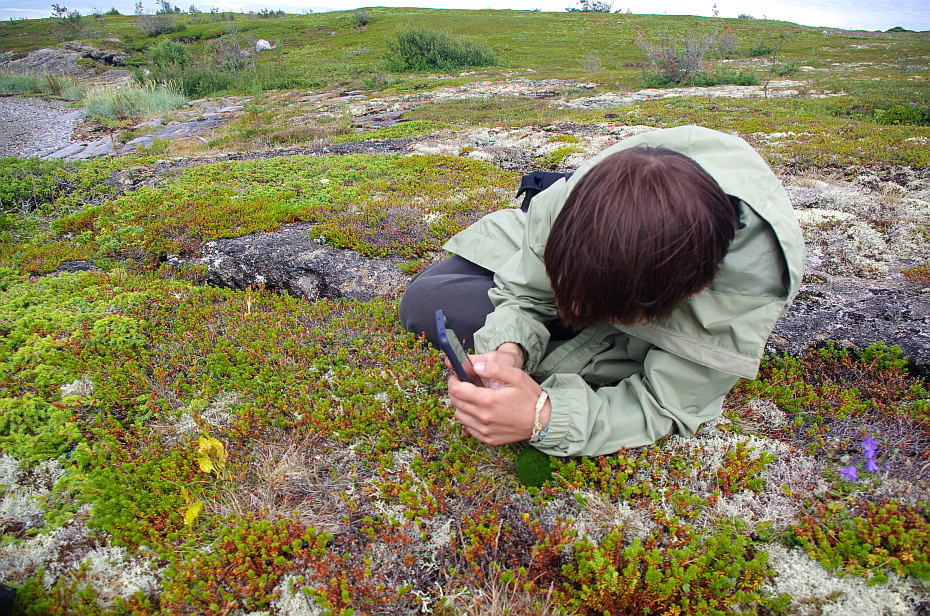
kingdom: Plantae
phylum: Tracheophyta
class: Polypodiopsida
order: Ophioglossales
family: Ophioglossaceae
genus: Botrychium
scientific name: Botrychium boreale
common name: Boreal moonwort
